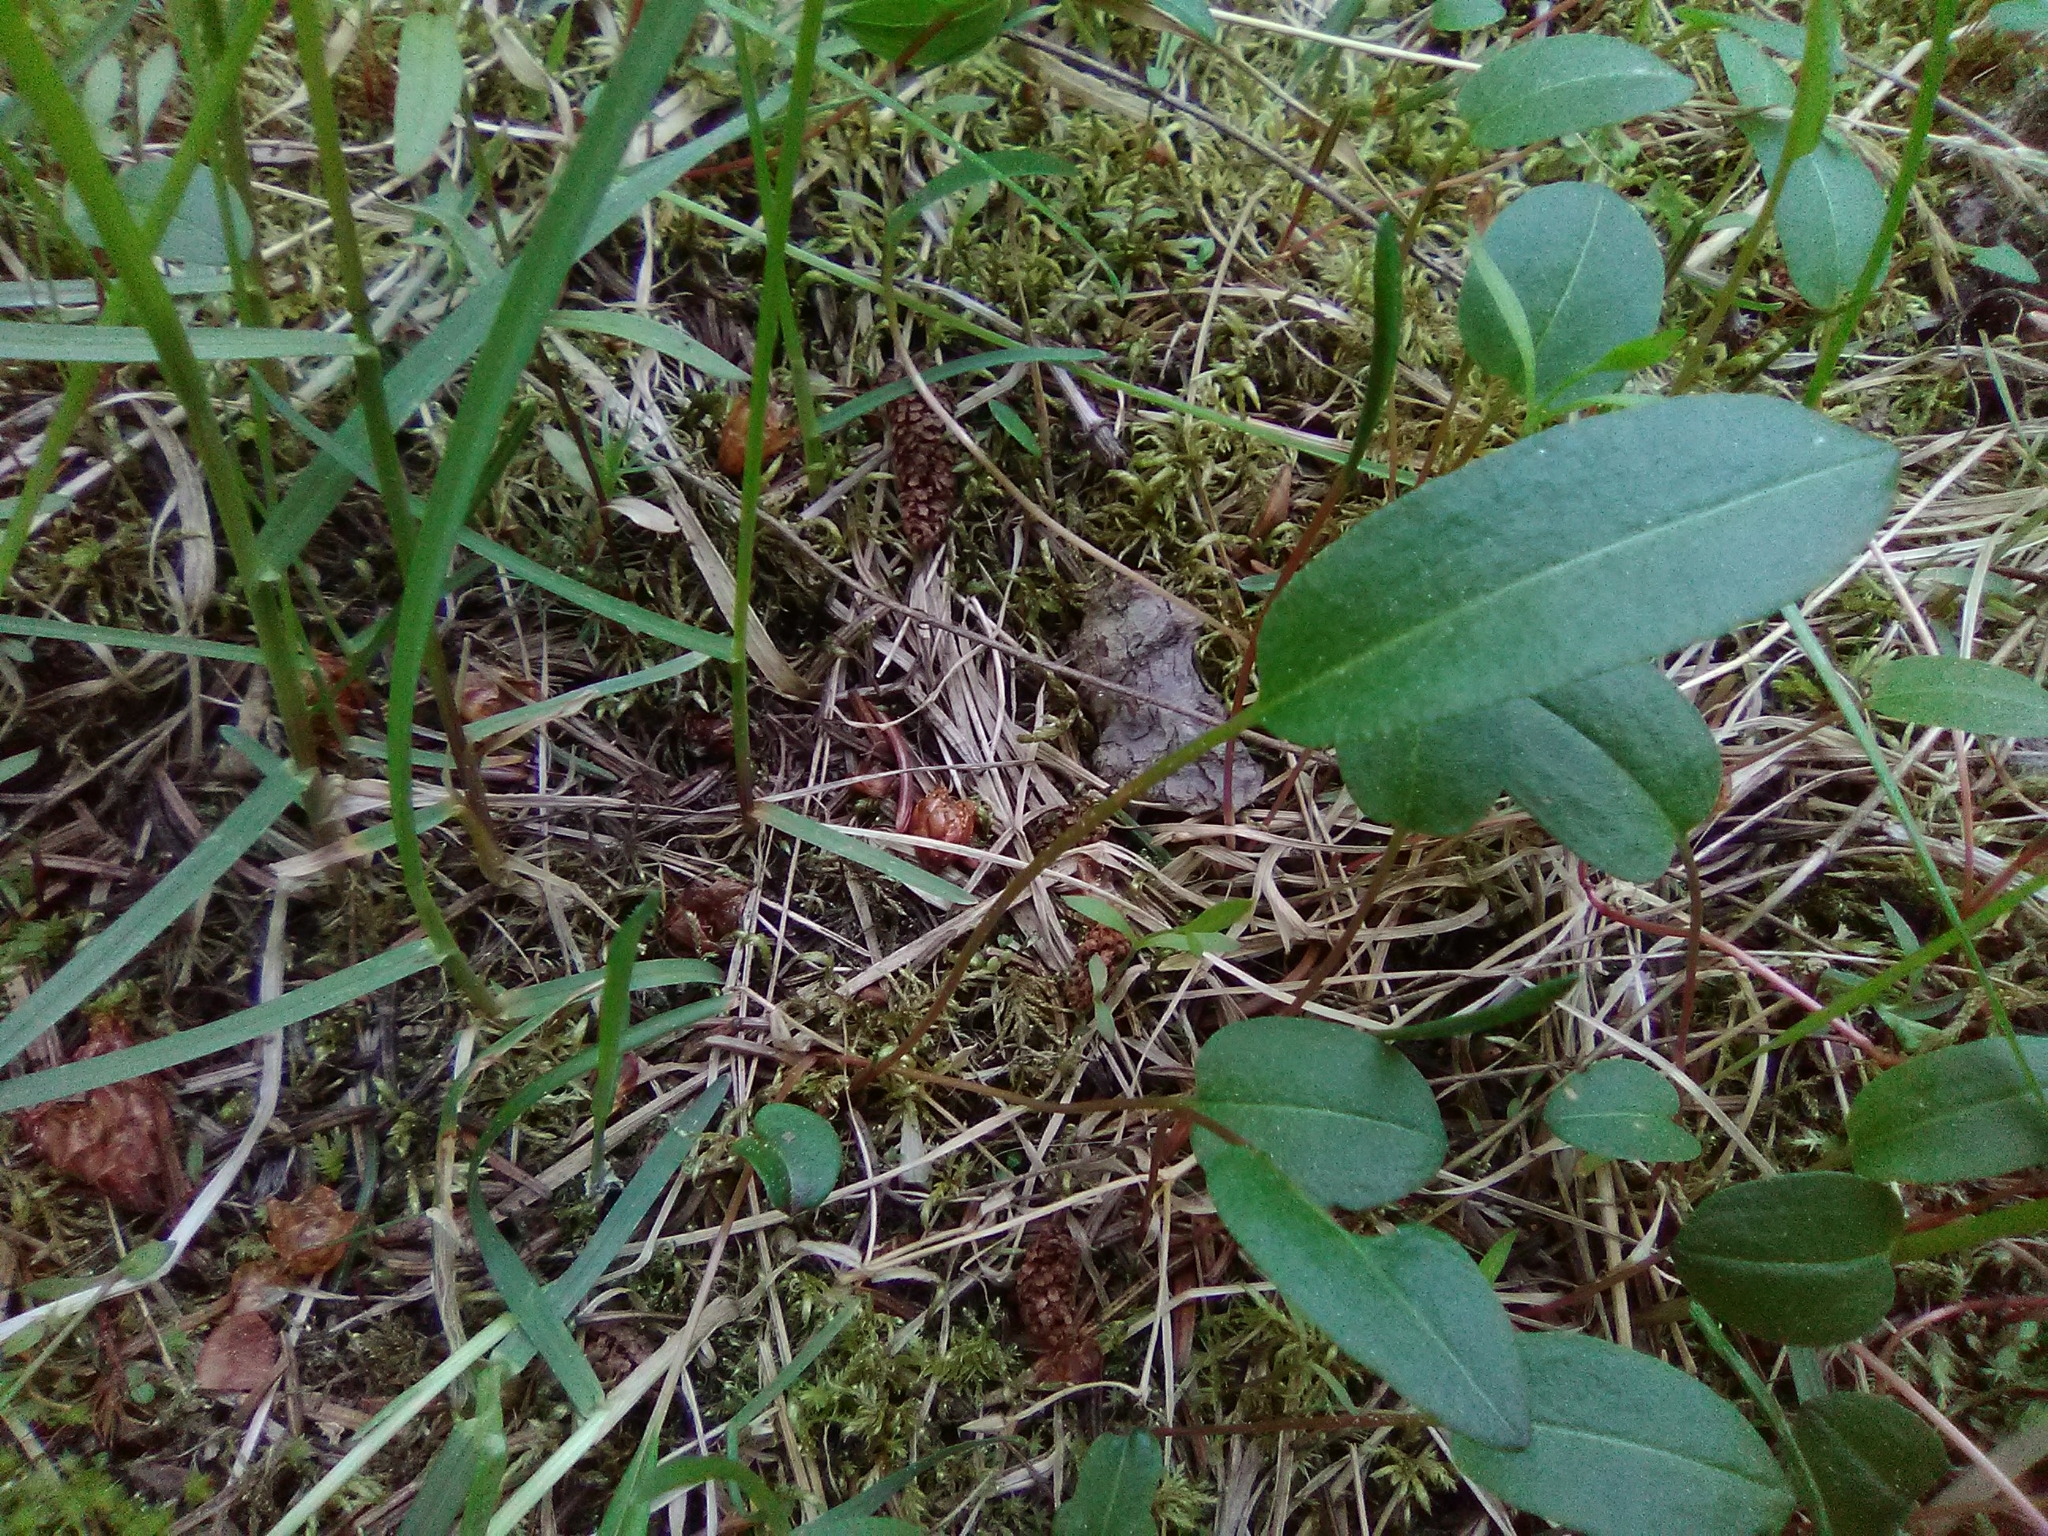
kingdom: Plantae
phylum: Tracheophyta
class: Magnoliopsida
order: Caryophyllales
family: Polygonaceae
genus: Bistorta
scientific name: Bistorta vivipara
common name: Alpine bistort
